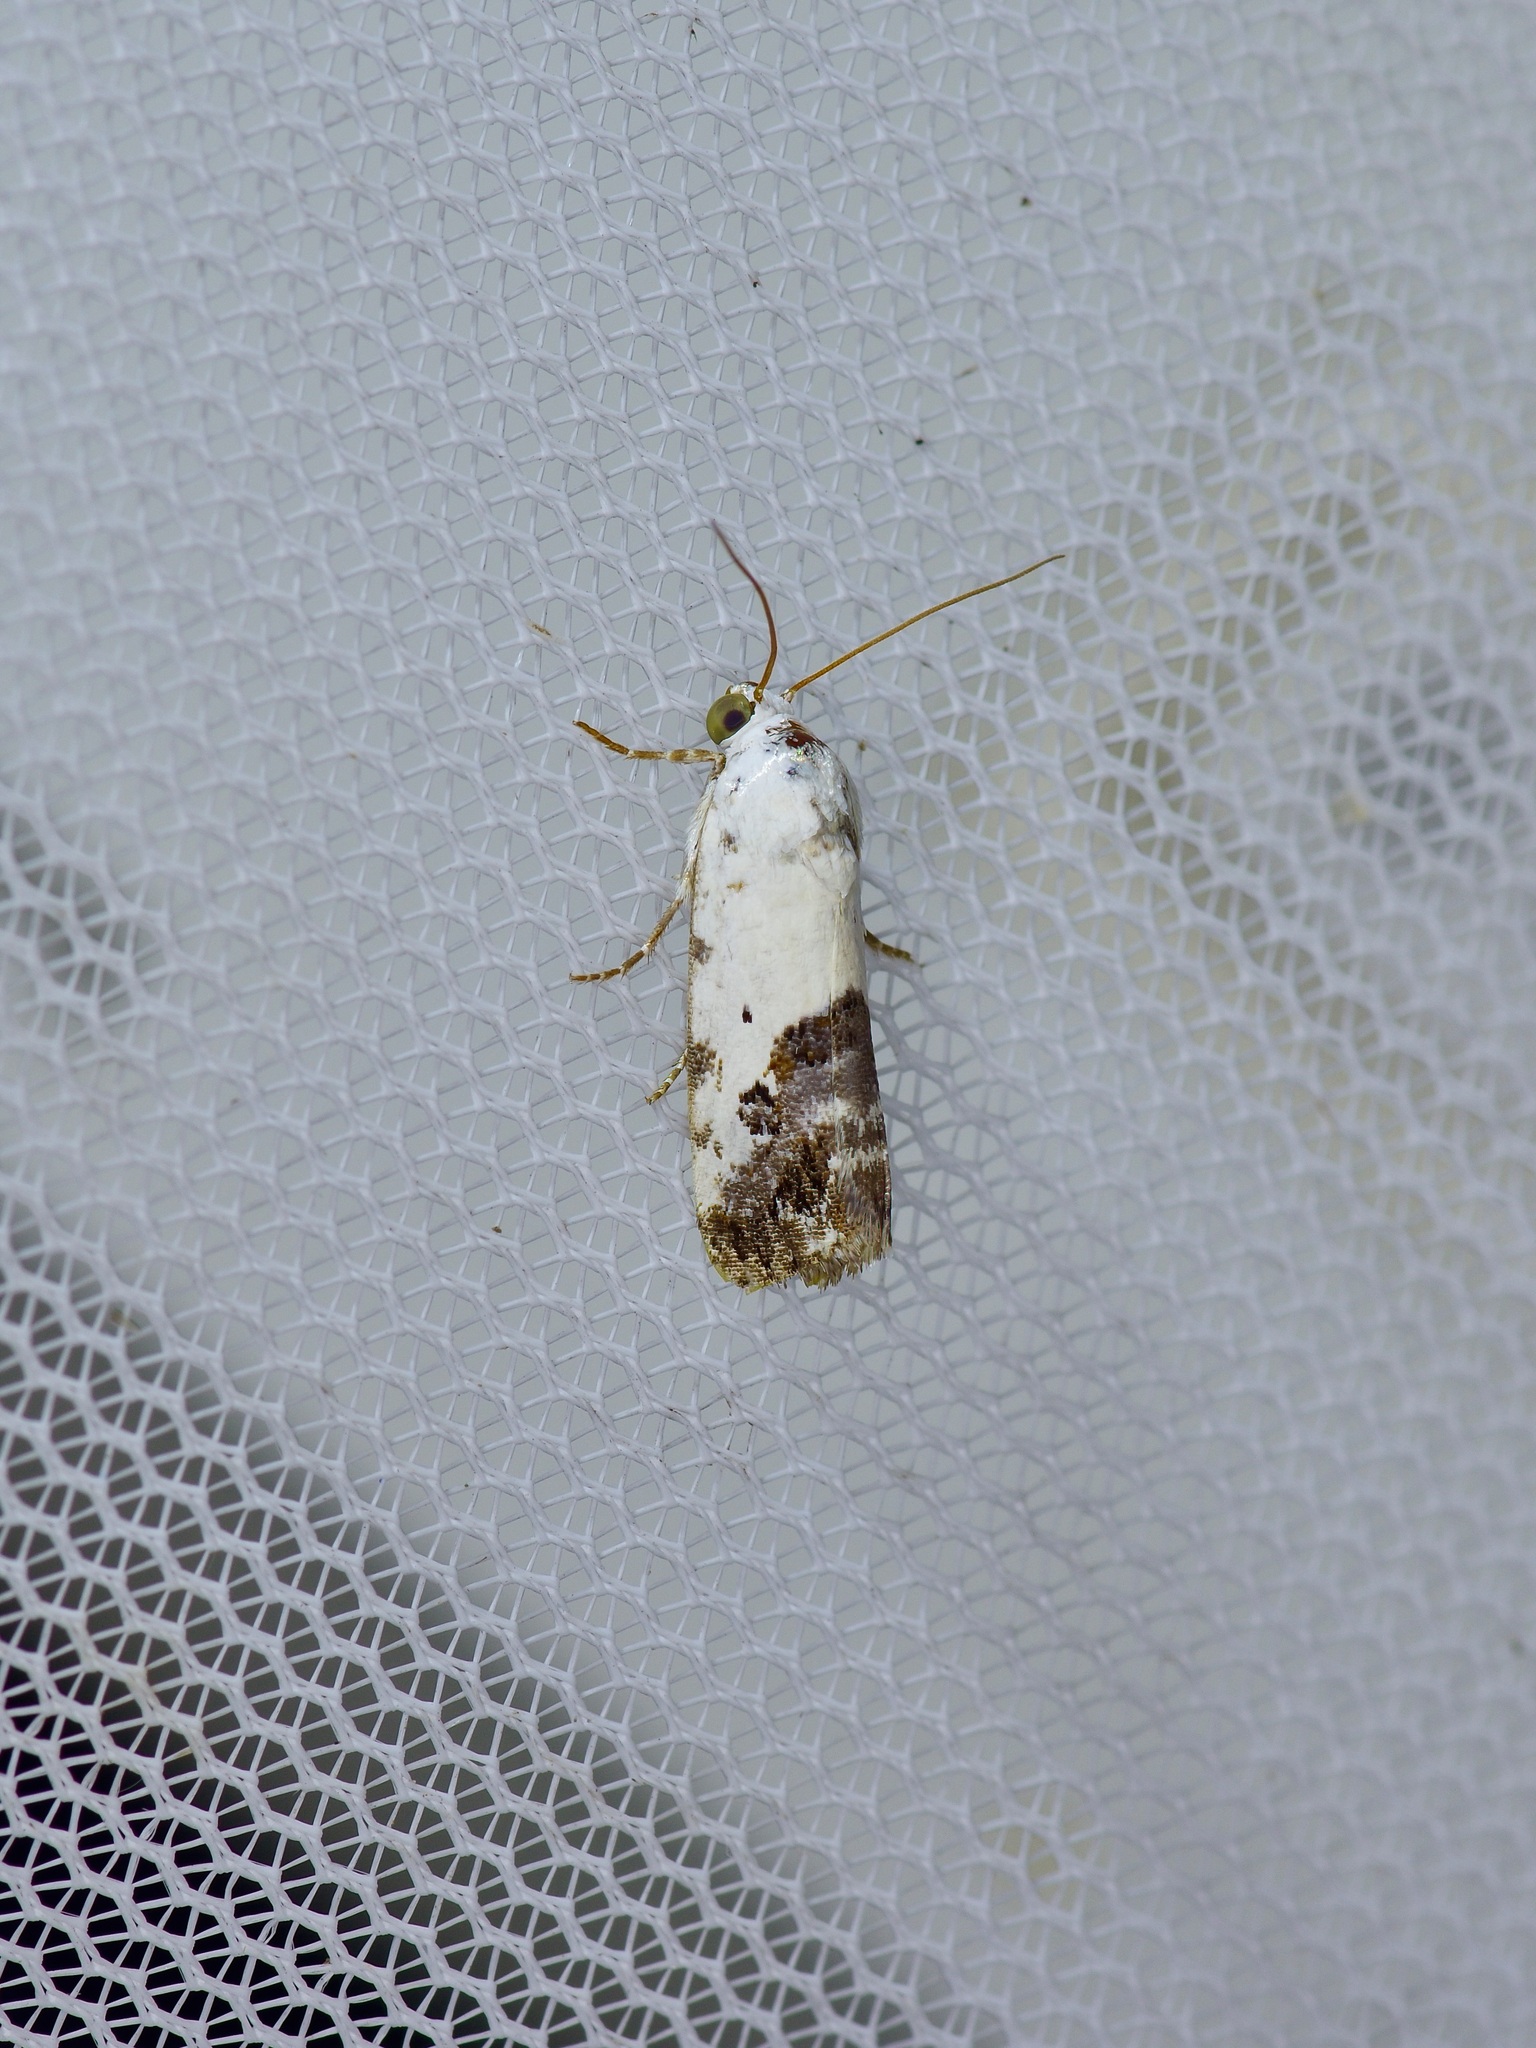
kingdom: Animalia
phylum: Arthropoda
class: Insecta
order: Lepidoptera
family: Noctuidae
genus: Acontia
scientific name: Acontia phecolisca
